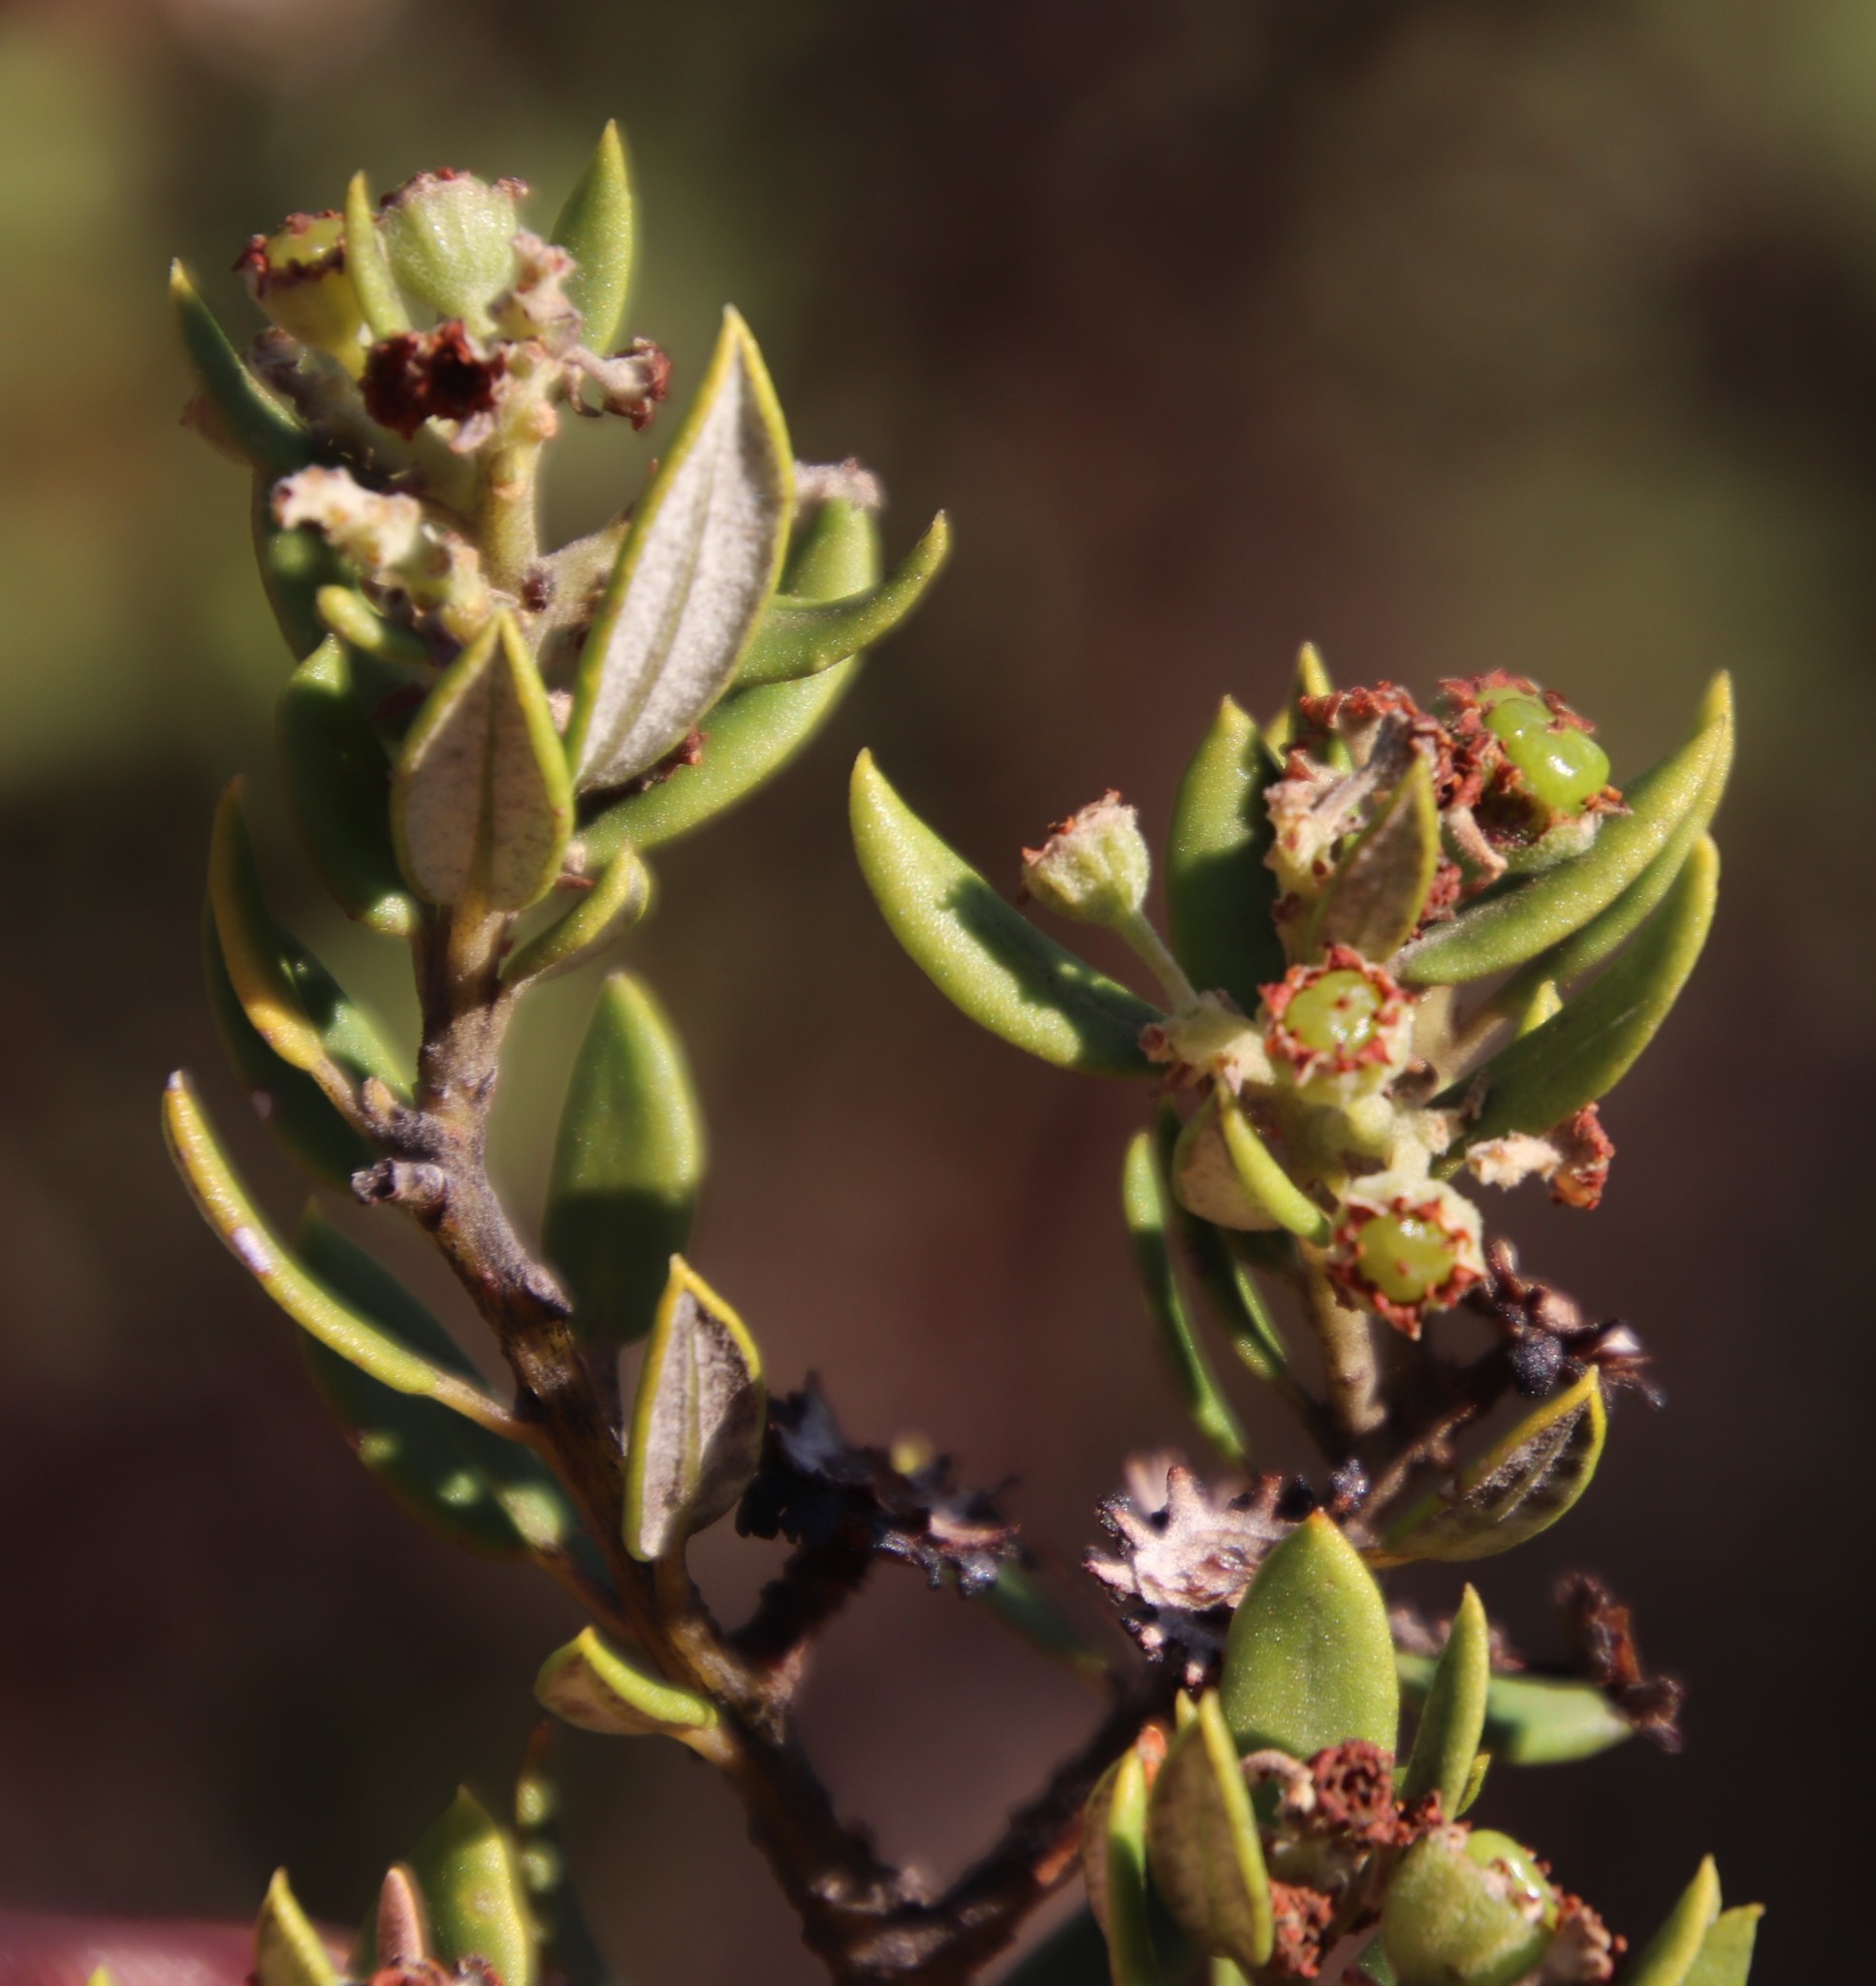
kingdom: Plantae
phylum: Tracheophyta
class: Magnoliopsida
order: Rosales
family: Rhamnaceae
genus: Phylica
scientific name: Phylica oleifolia
